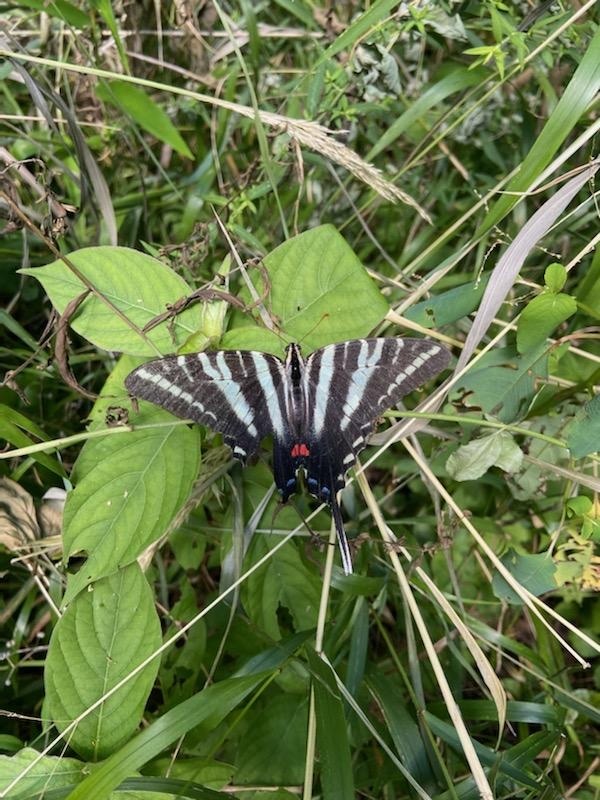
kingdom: Animalia
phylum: Arthropoda
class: Insecta
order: Lepidoptera
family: Papilionidae
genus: Protographium
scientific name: Protographium marcellus
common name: Zebra swallowtail
